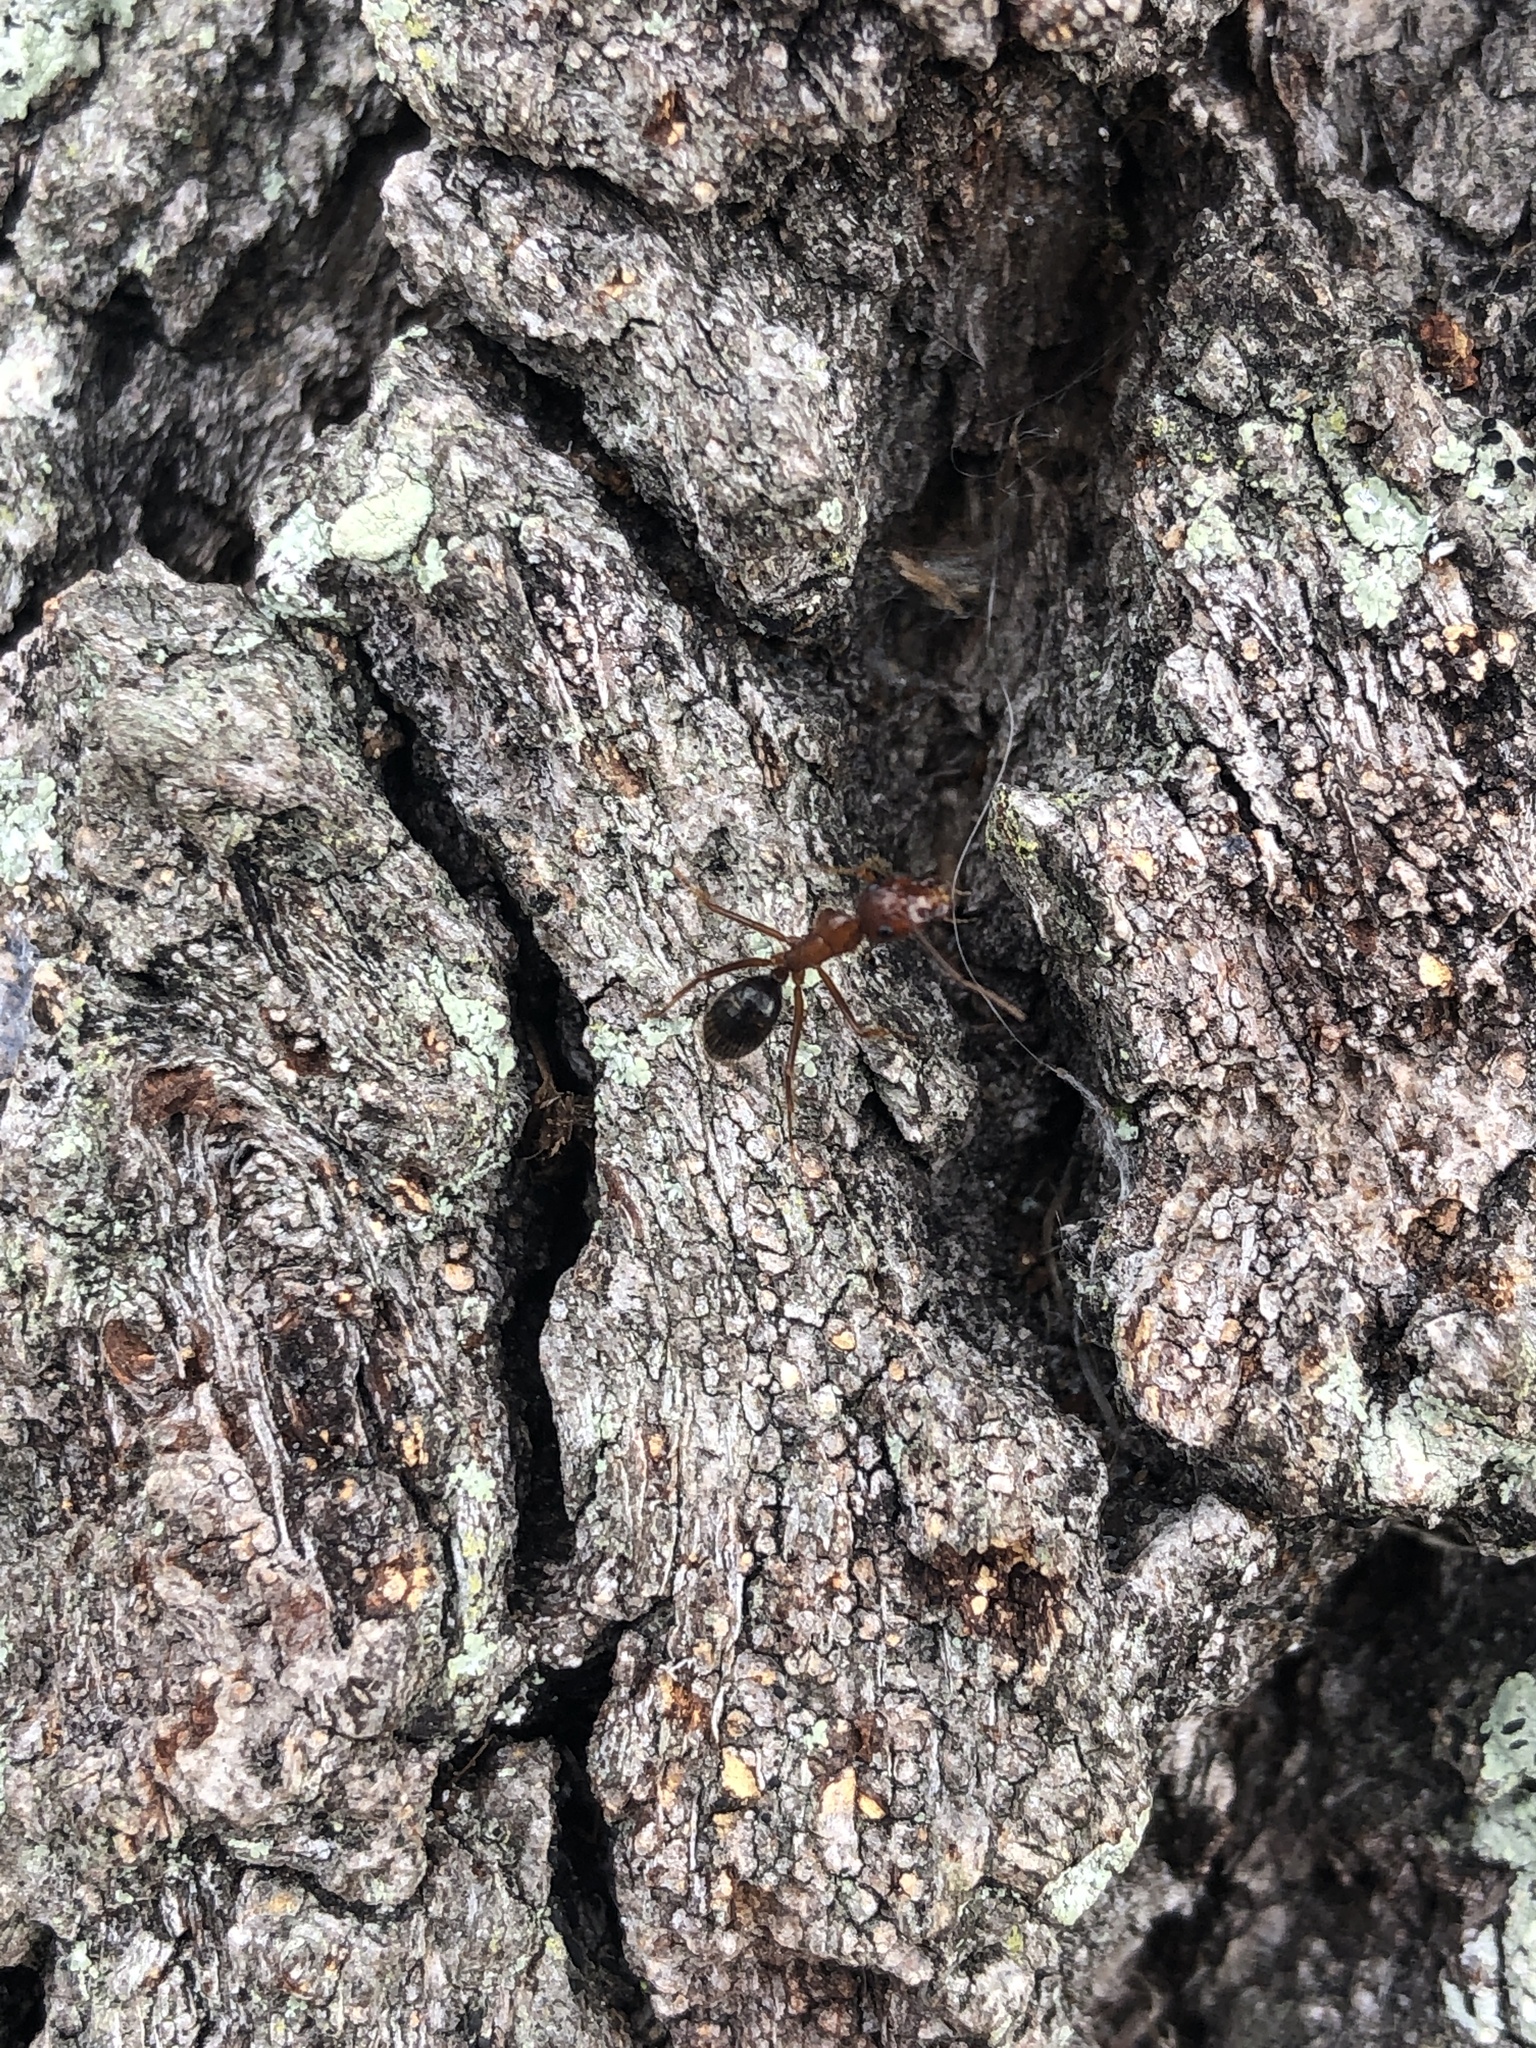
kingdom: Animalia
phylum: Arthropoda
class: Insecta
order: Hymenoptera
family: Formicidae
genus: Camponotus
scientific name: Camponotus floridanus
